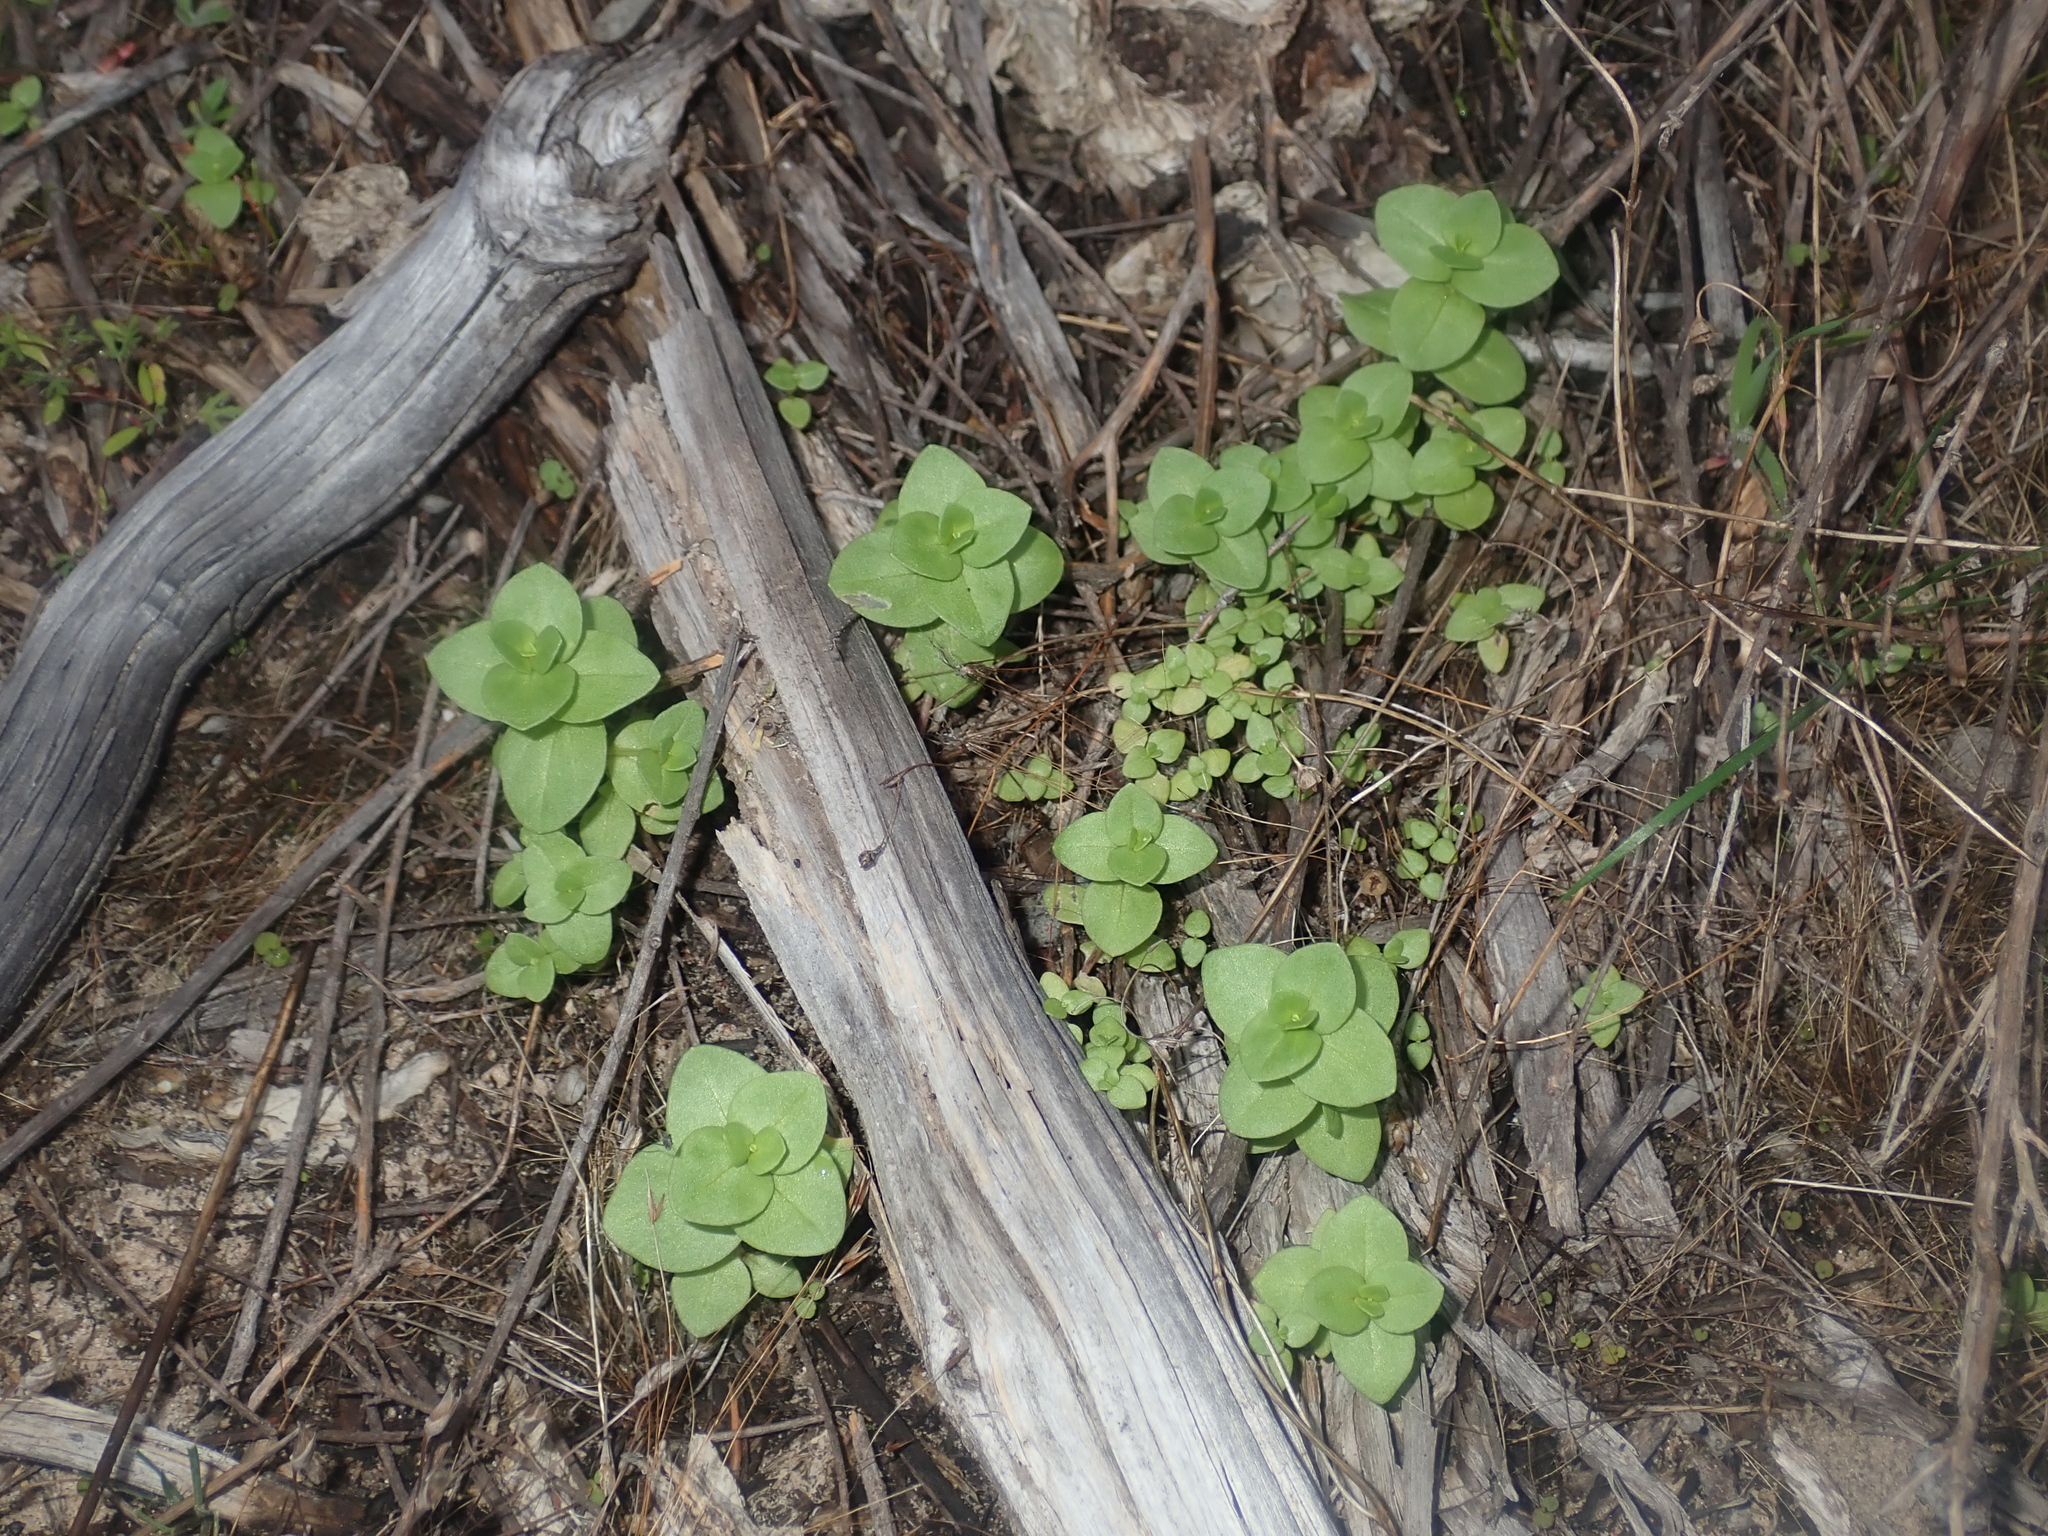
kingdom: Plantae
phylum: Tracheophyta
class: Magnoliopsida
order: Ericales
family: Primulaceae
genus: Lysimachia
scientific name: Lysimachia Anagallis spec
